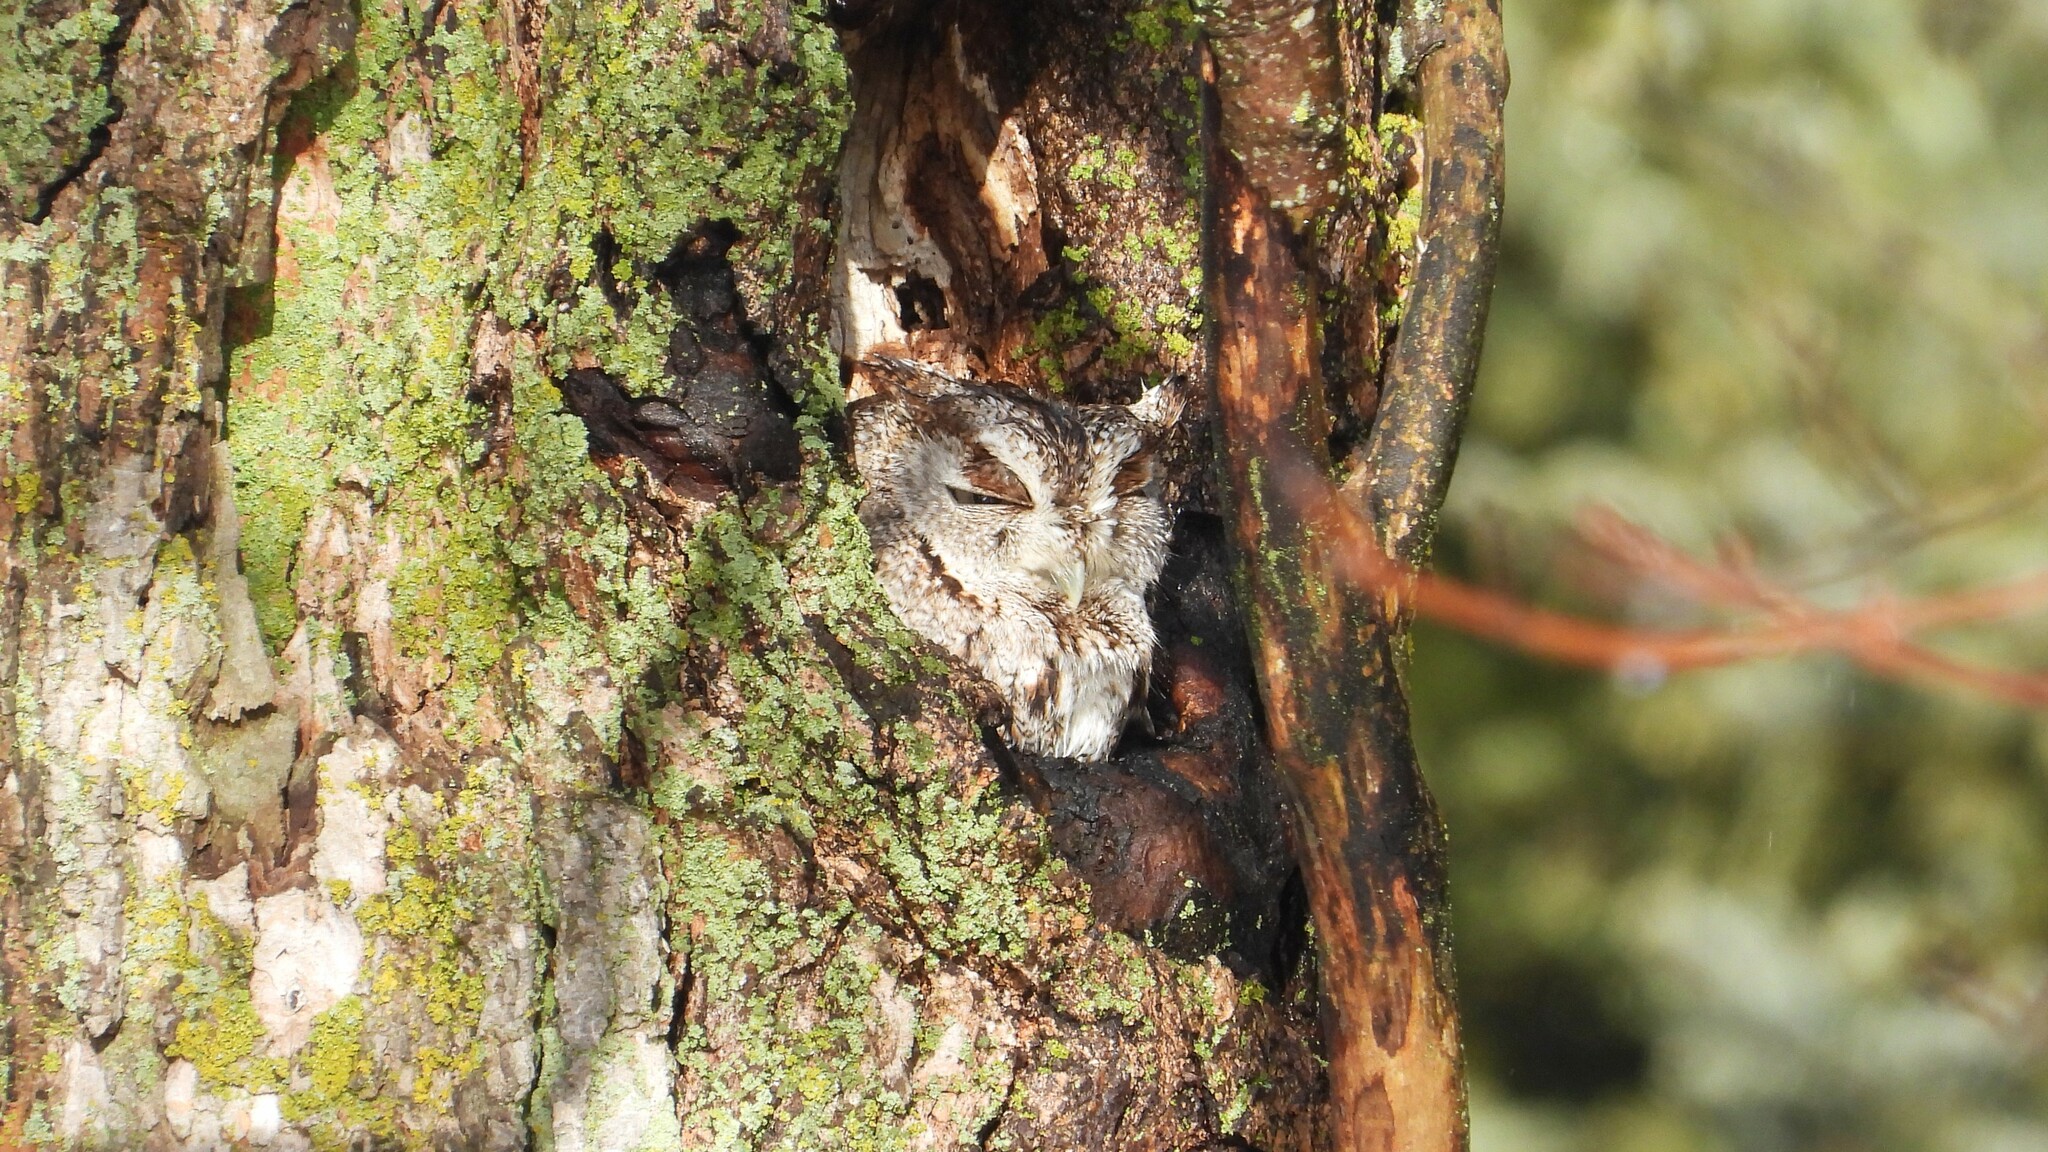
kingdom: Animalia
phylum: Chordata
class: Aves
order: Strigiformes
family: Strigidae
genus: Megascops
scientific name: Megascops asio
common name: Eastern screech-owl
